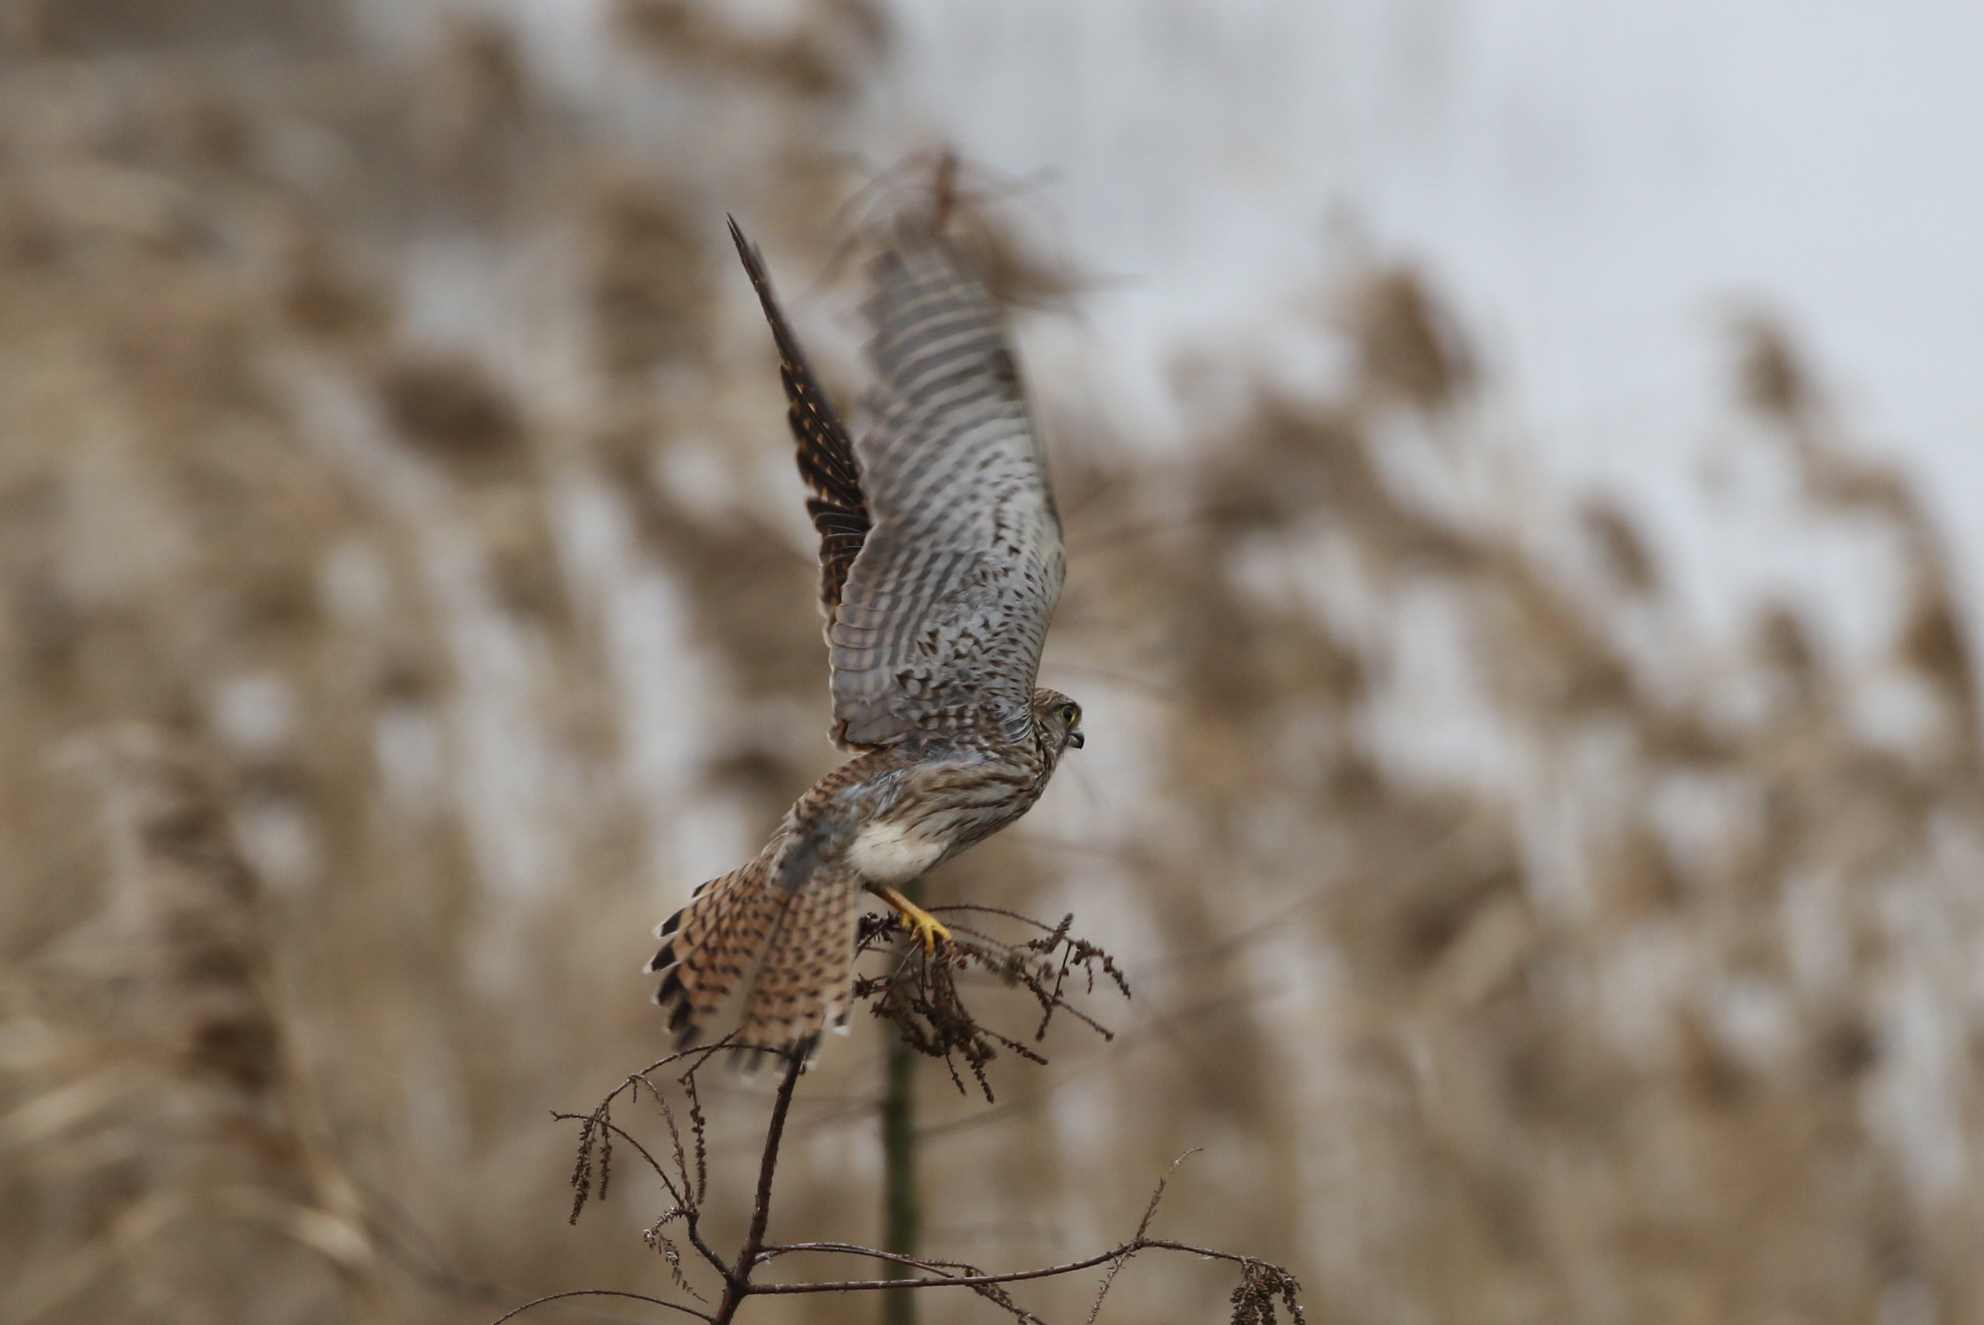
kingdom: Animalia
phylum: Chordata
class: Aves
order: Falconiformes
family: Falconidae
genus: Falco
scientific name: Falco tinnunculus
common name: Common kestrel
